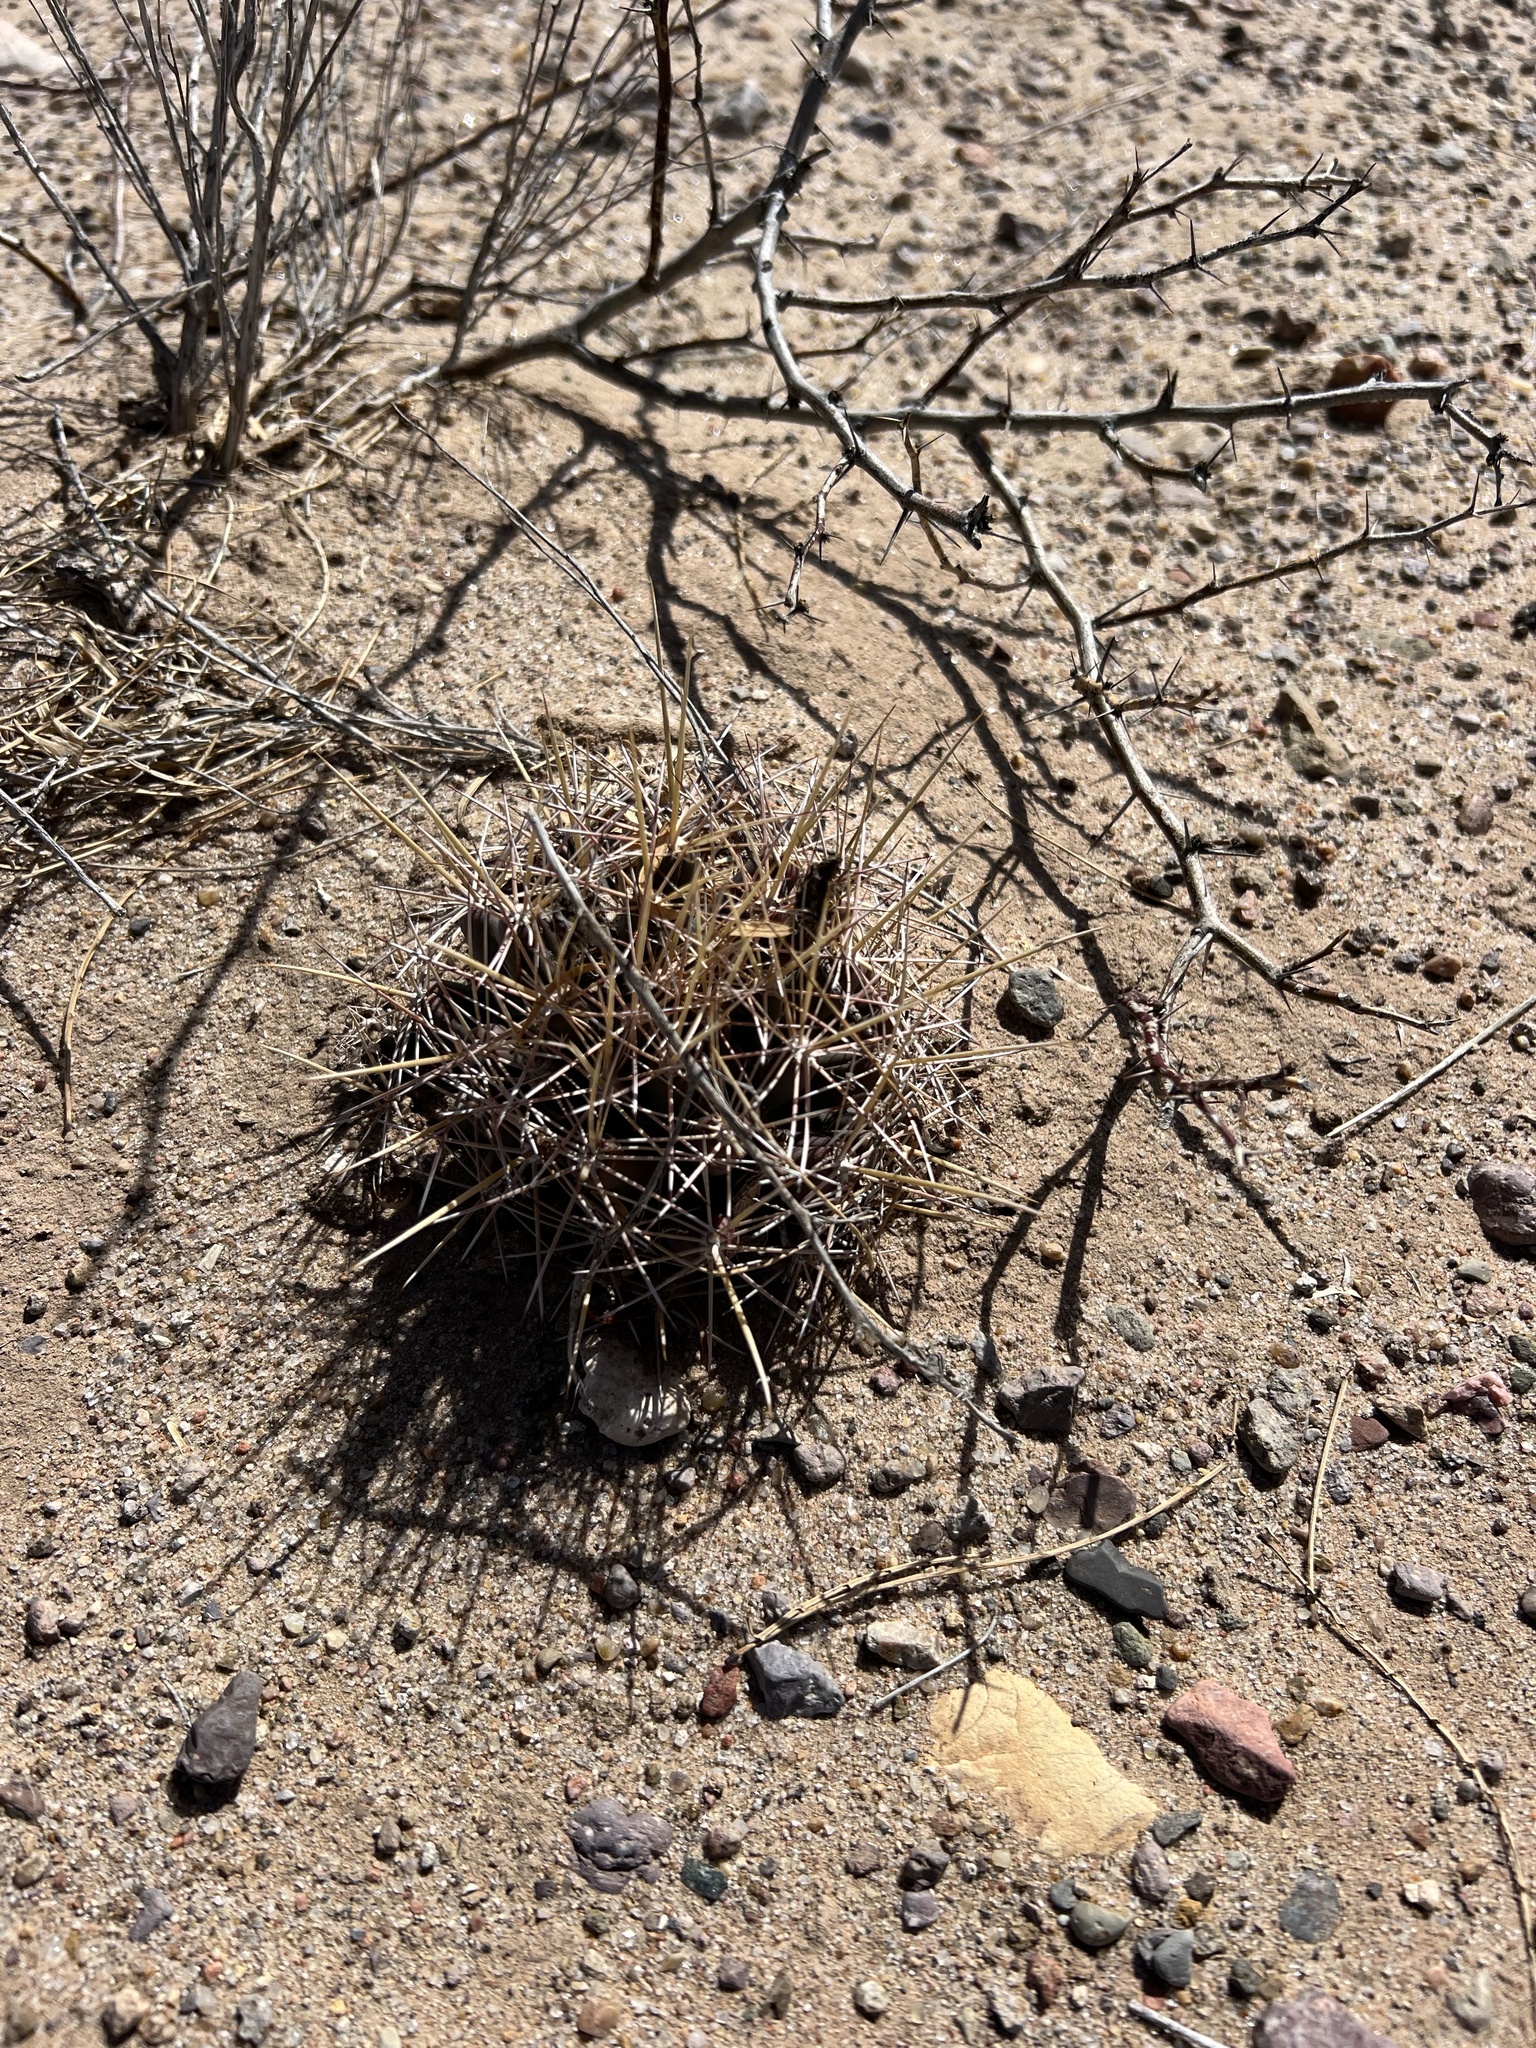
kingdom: Plantae
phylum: Tracheophyta
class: Magnoliopsida
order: Caryophyllales
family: Cactaceae
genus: Coryphantha
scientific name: Coryphantha robustispina
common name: Pima pineapple cactus
